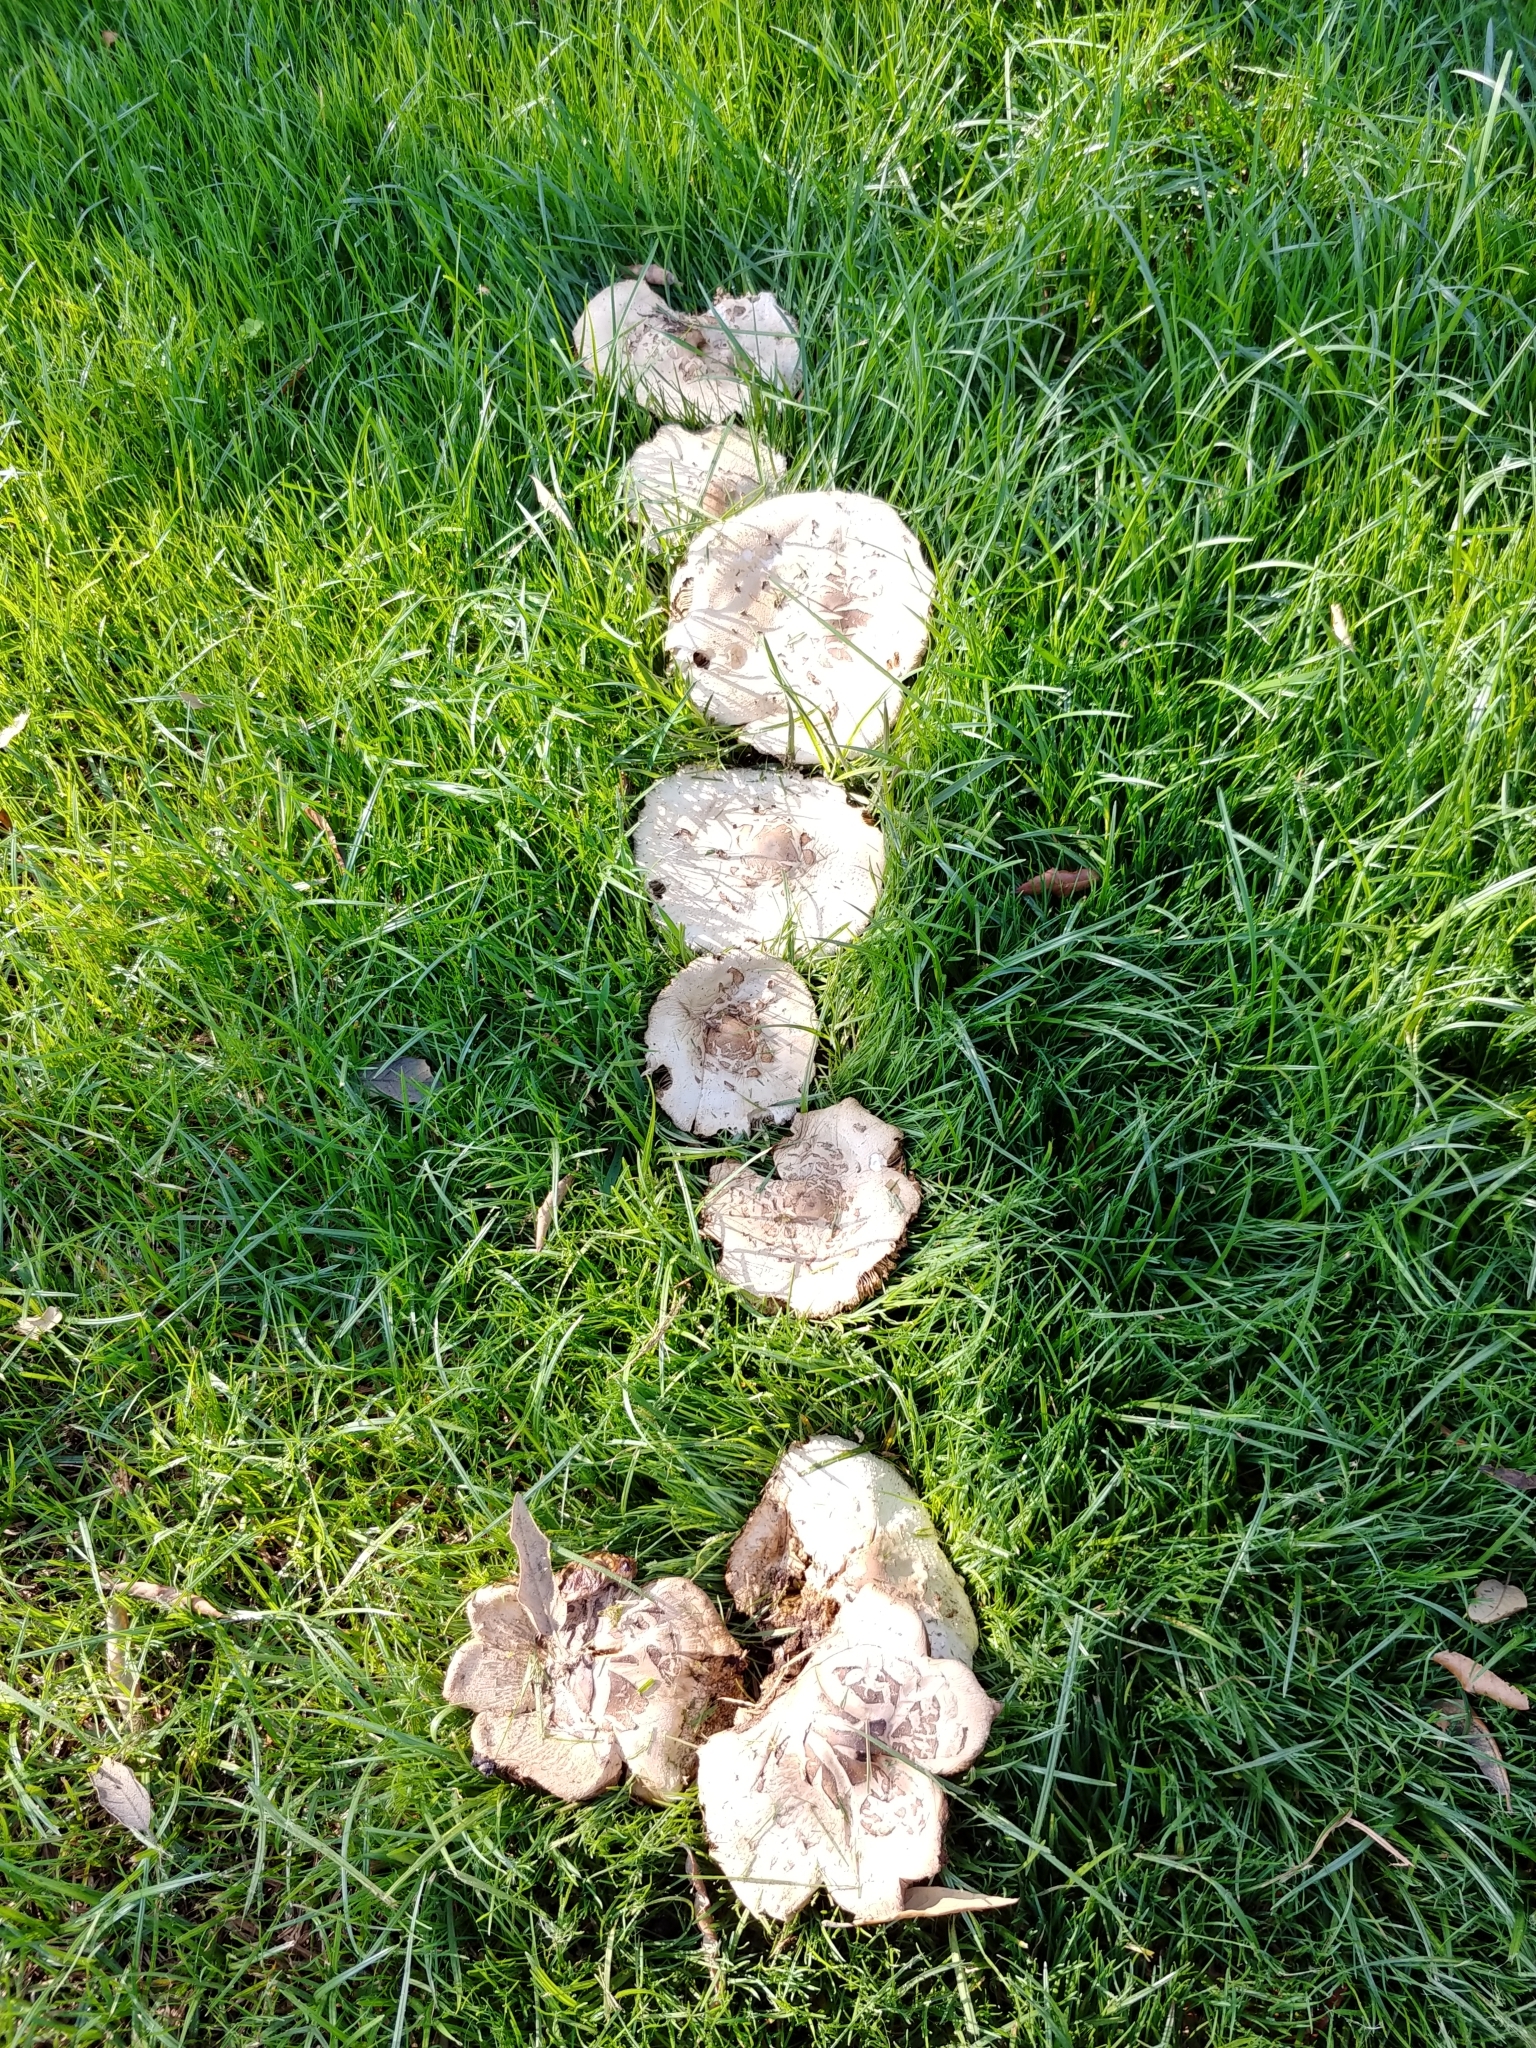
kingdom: Fungi
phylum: Basidiomycota
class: Agaricomycetes
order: Agaricales
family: Agaricaceae
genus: Chlorophyllum
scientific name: Chlorophyllum molybdites
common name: False parasol
